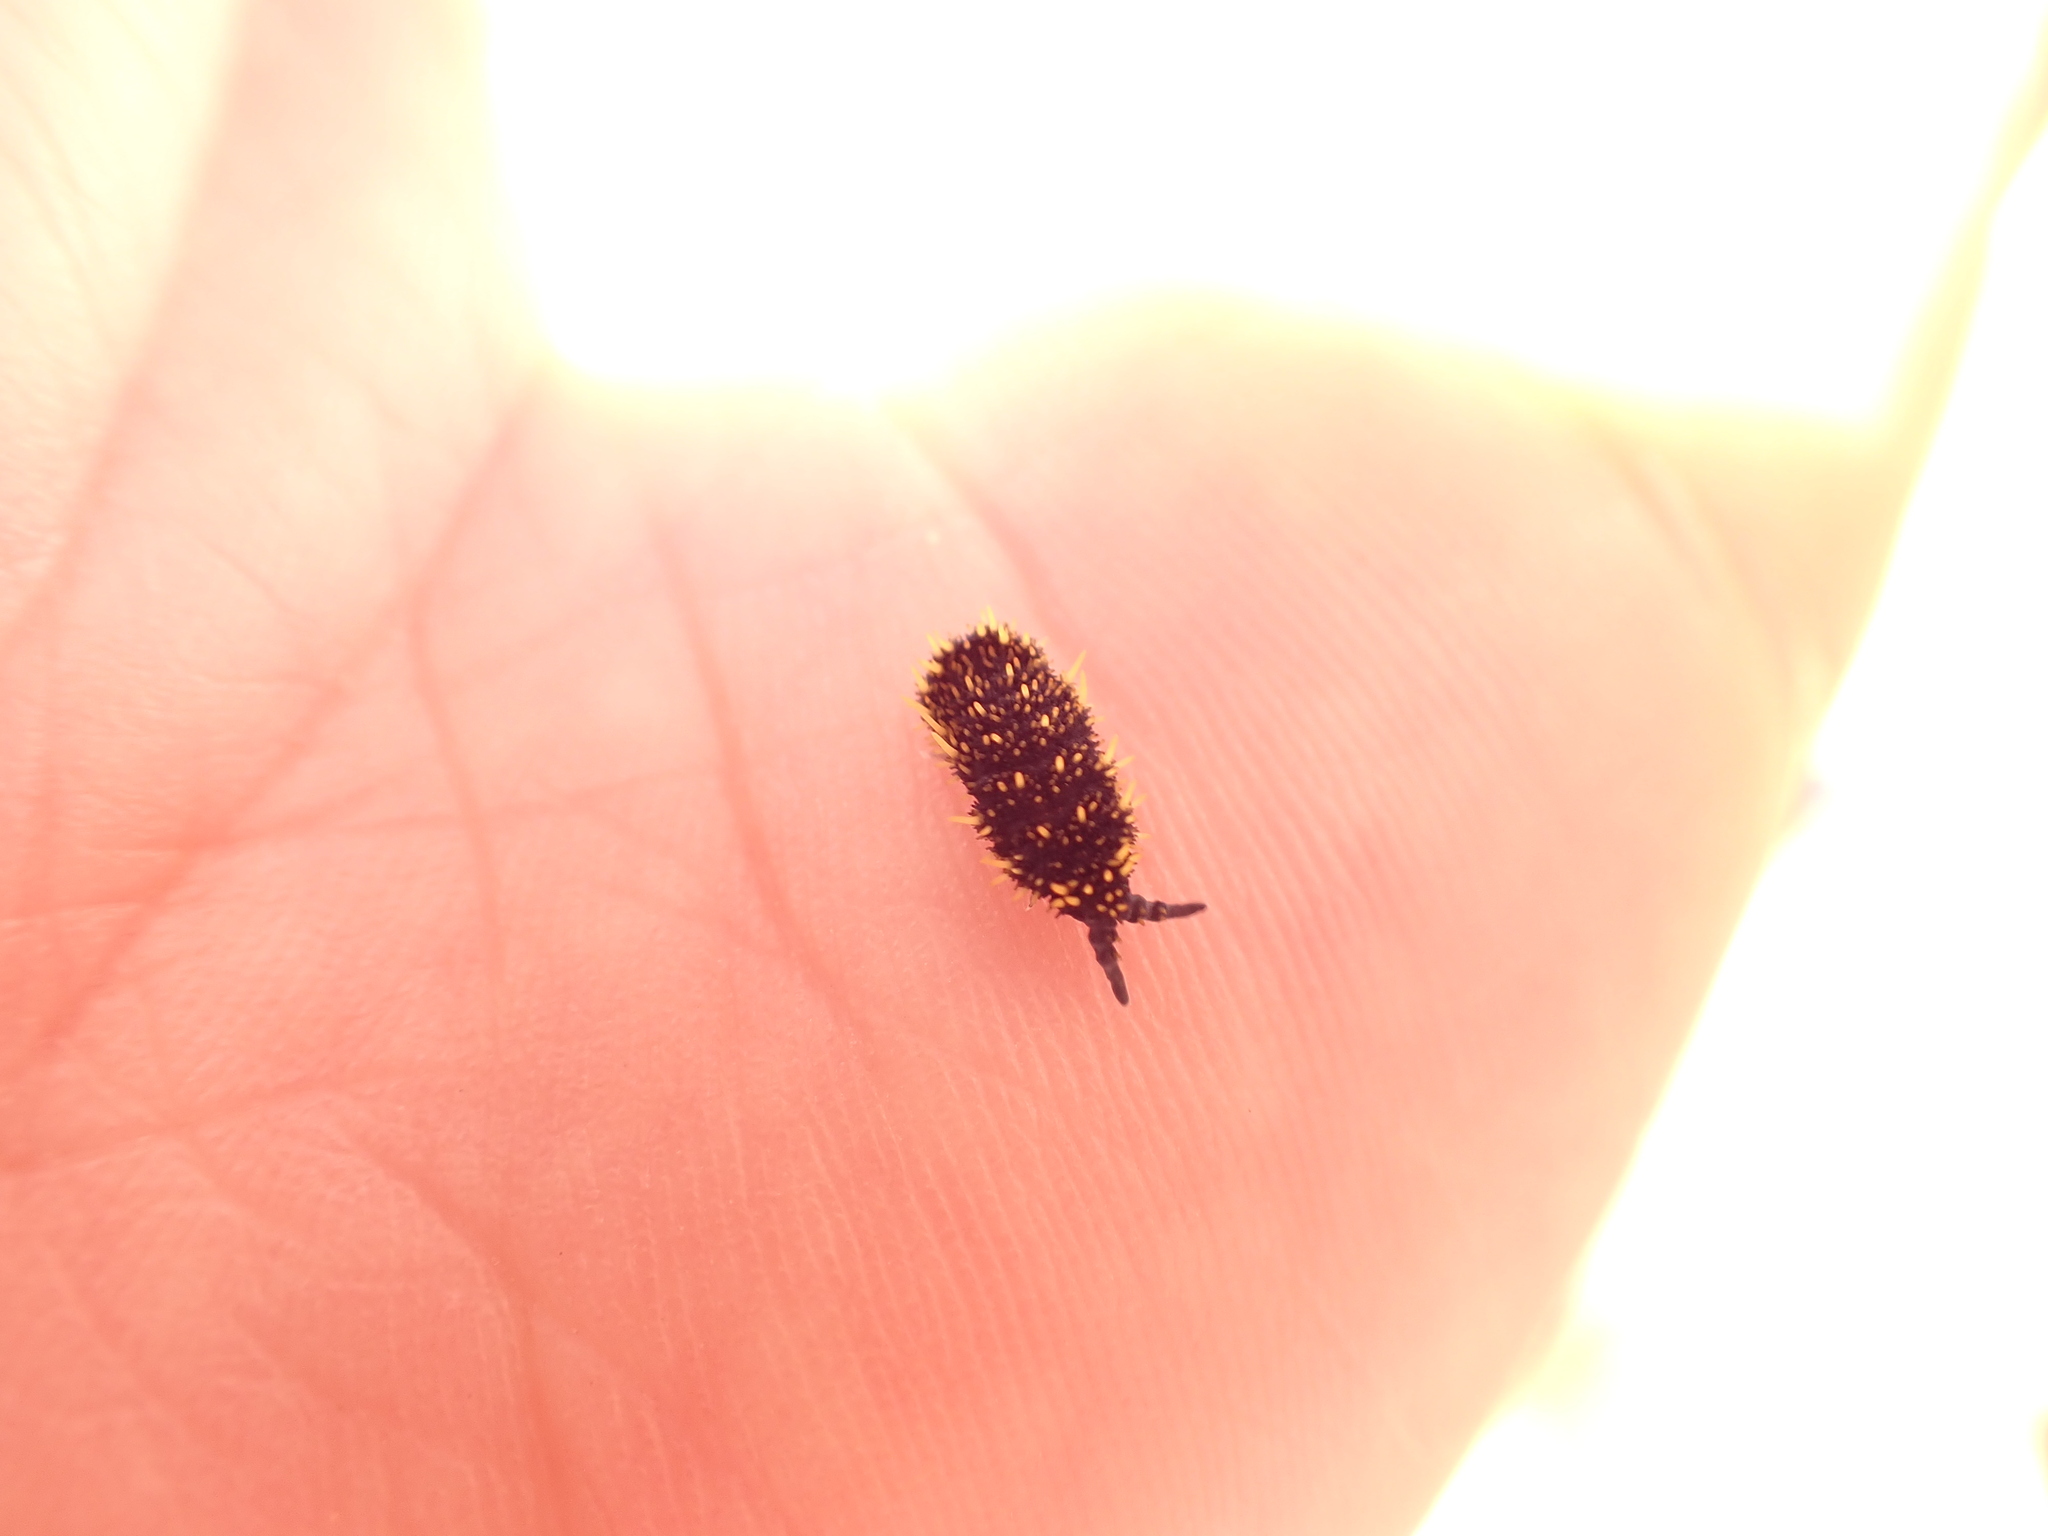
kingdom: Animalia
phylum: Arthropoda
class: Collembola
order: Poduromorpha
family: Neanuridae
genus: Holacanthella
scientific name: Holacanthella duospinosa
